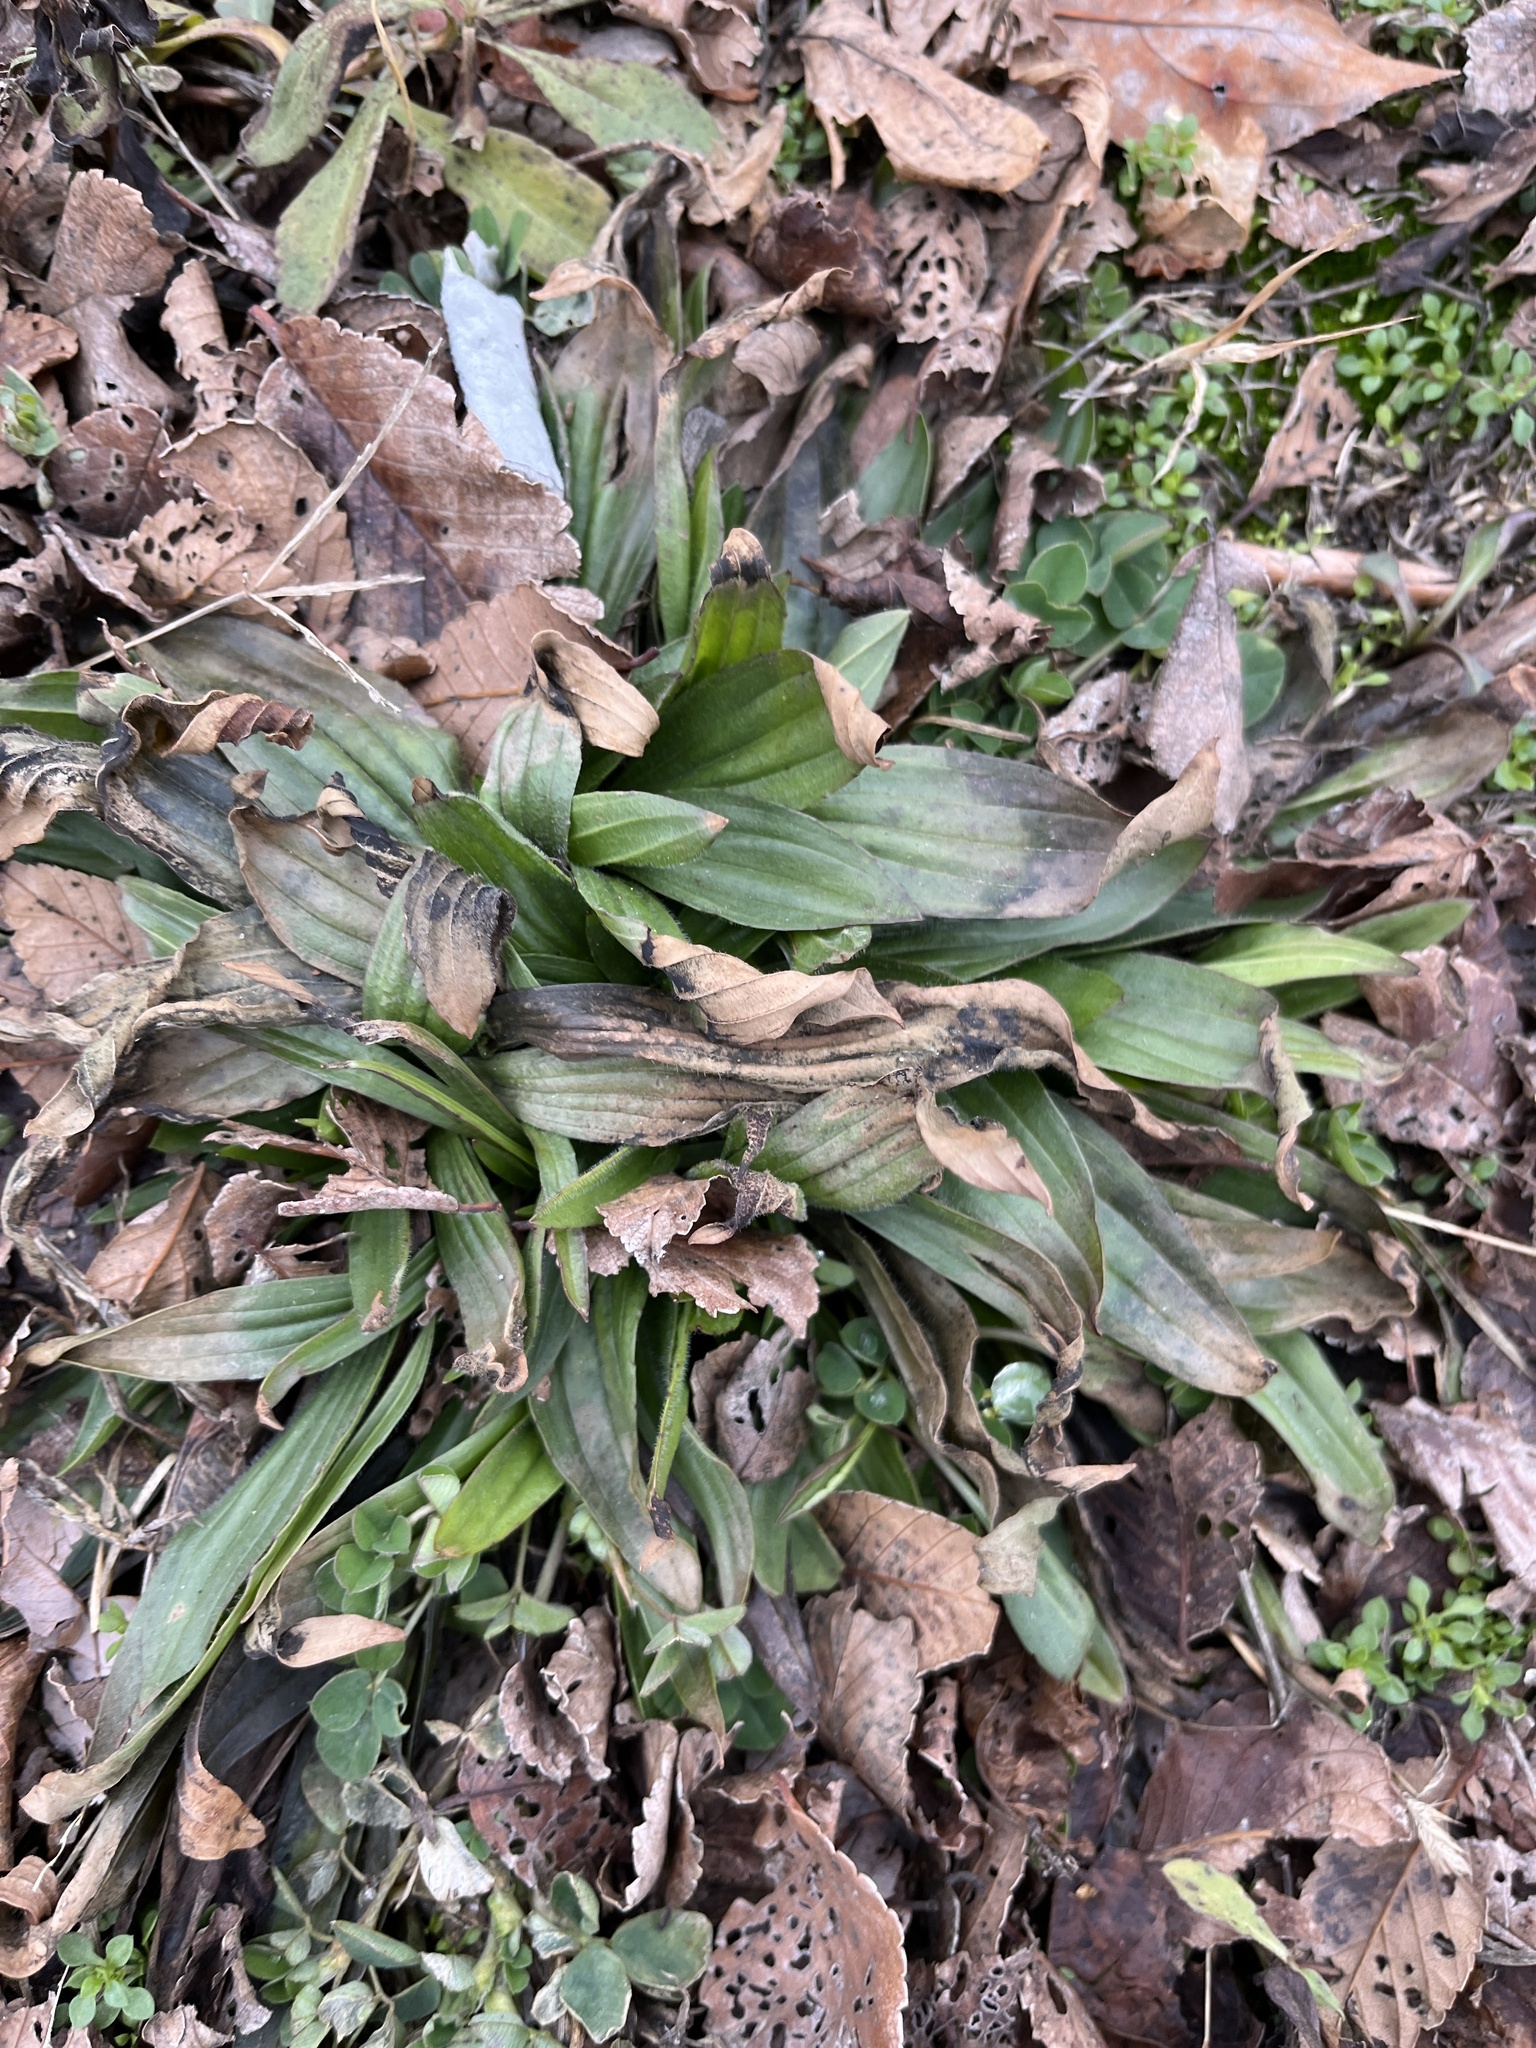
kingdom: Plantae
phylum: Tracheophyta
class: Magnoliopsida
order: Lamiales
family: Plantaginaceae
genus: Plantago
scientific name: Plantago lanceolata
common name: Ribwort plantain
